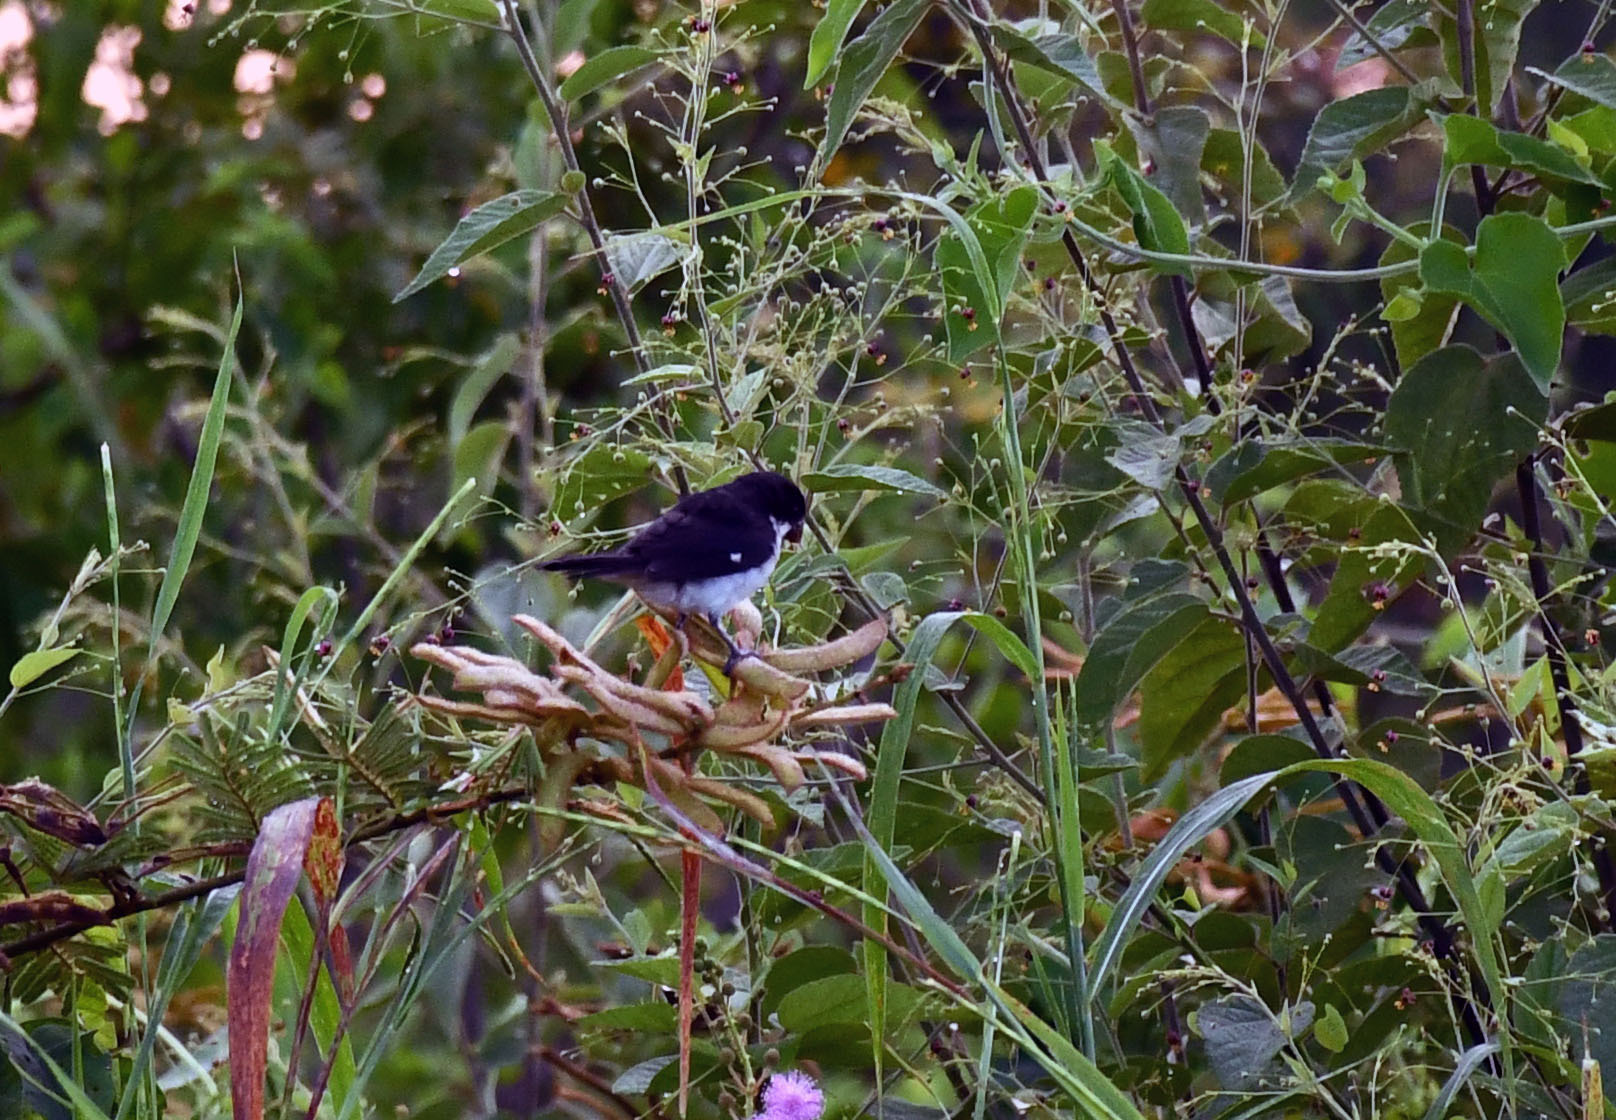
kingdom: Animalia
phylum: Chordata
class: Aves
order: Passeriformes
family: Thraupidae
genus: Sporophila
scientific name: Sporophila leucoptera
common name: White-bellied seedeater
